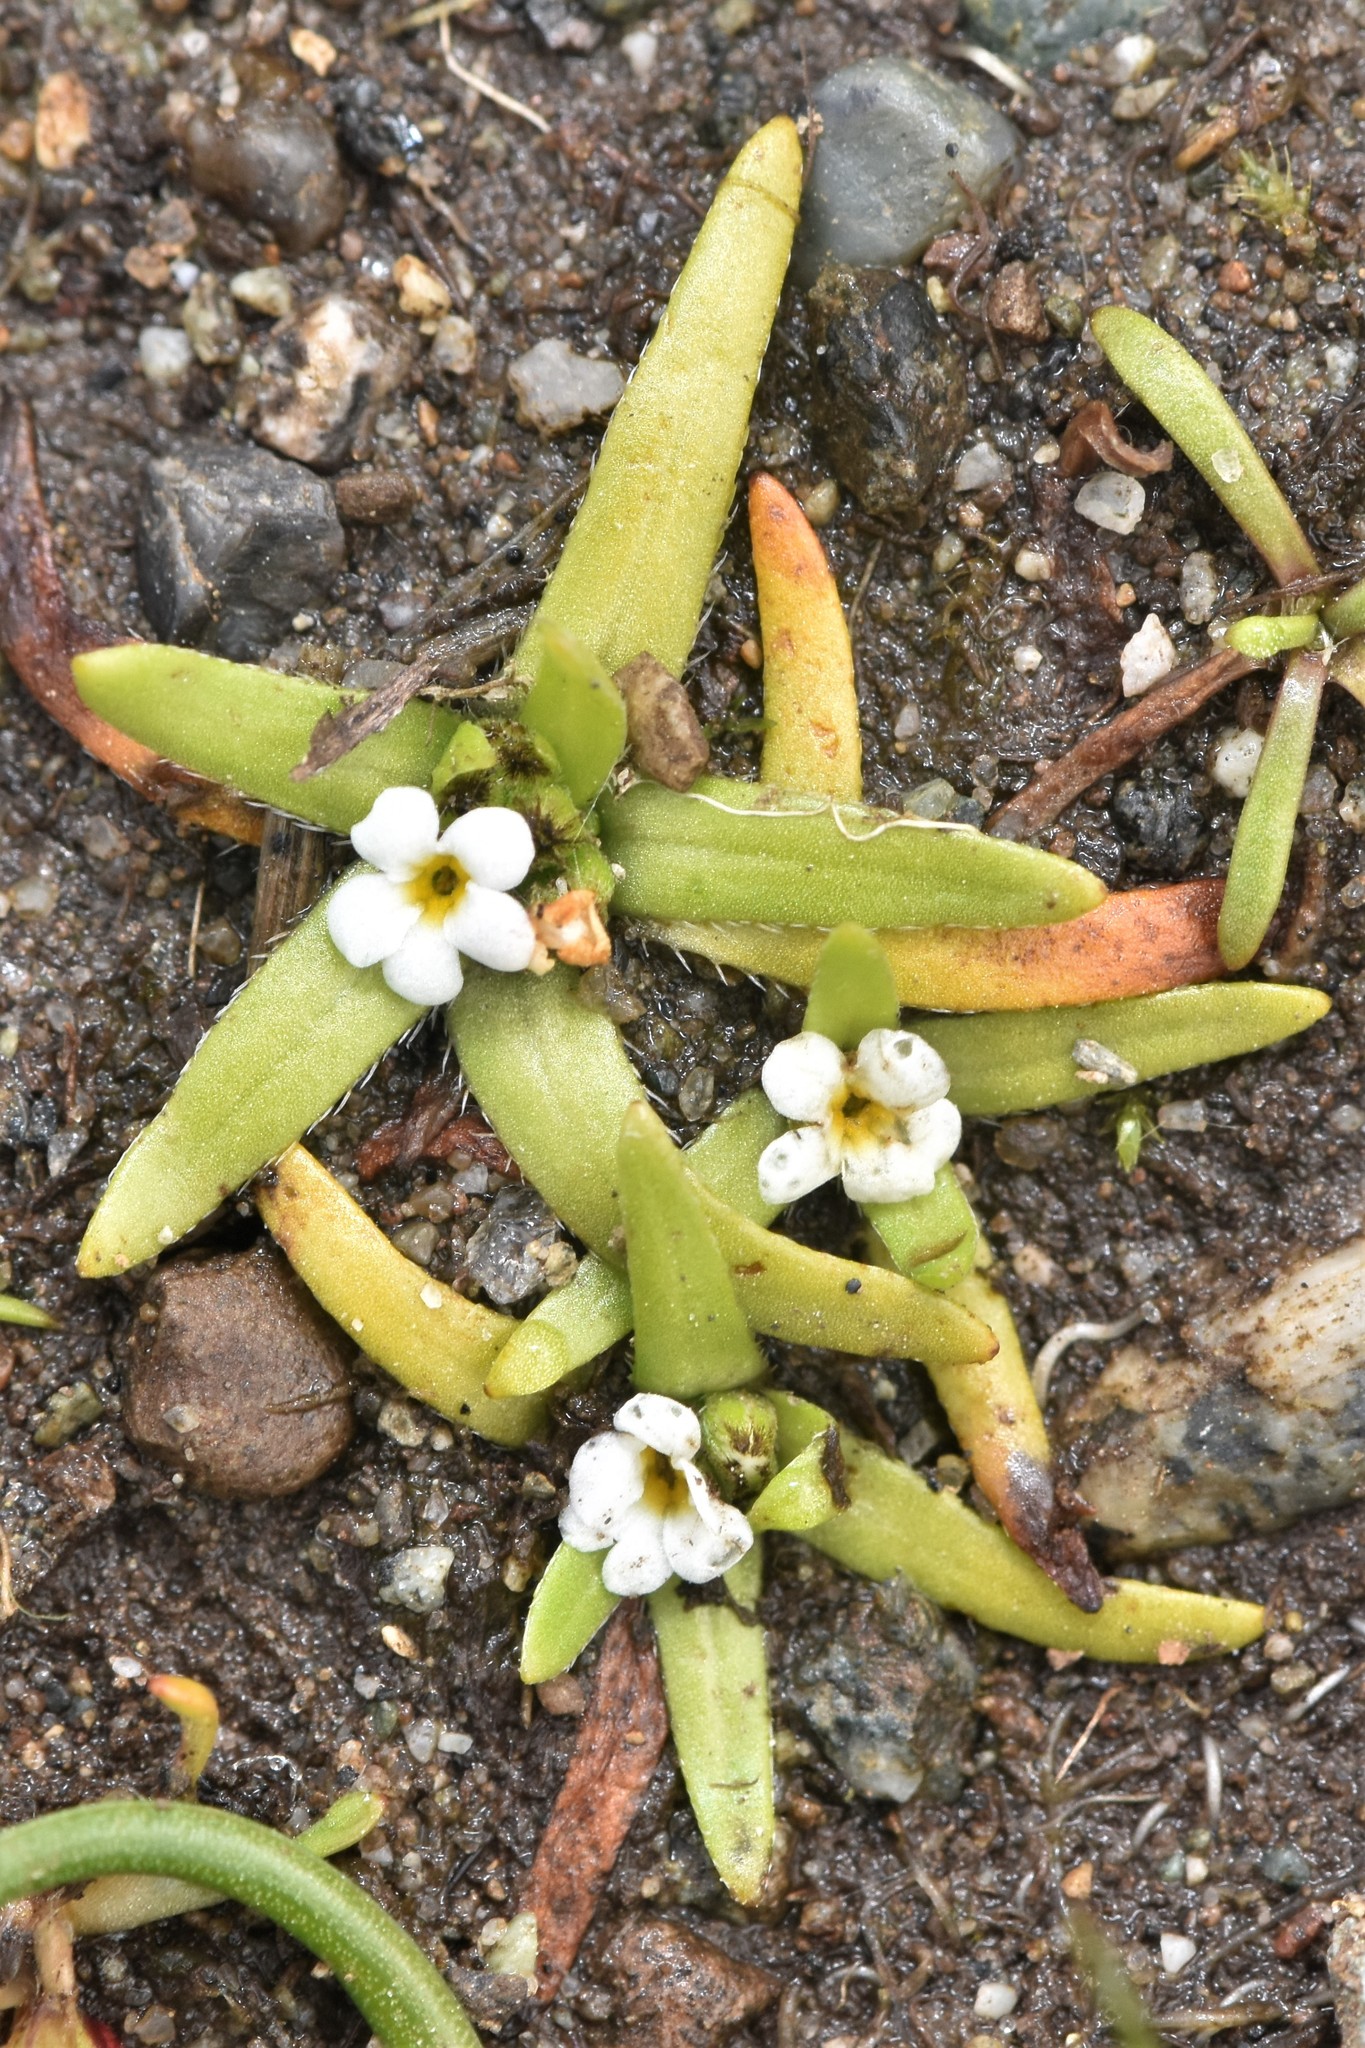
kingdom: Plantae
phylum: Tracheophyta
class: Magnoliopsida
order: Boraginales
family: Boraginaceae
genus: Plagiobothrys
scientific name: Plagiobothrys scouleri
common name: White forget-me-not
